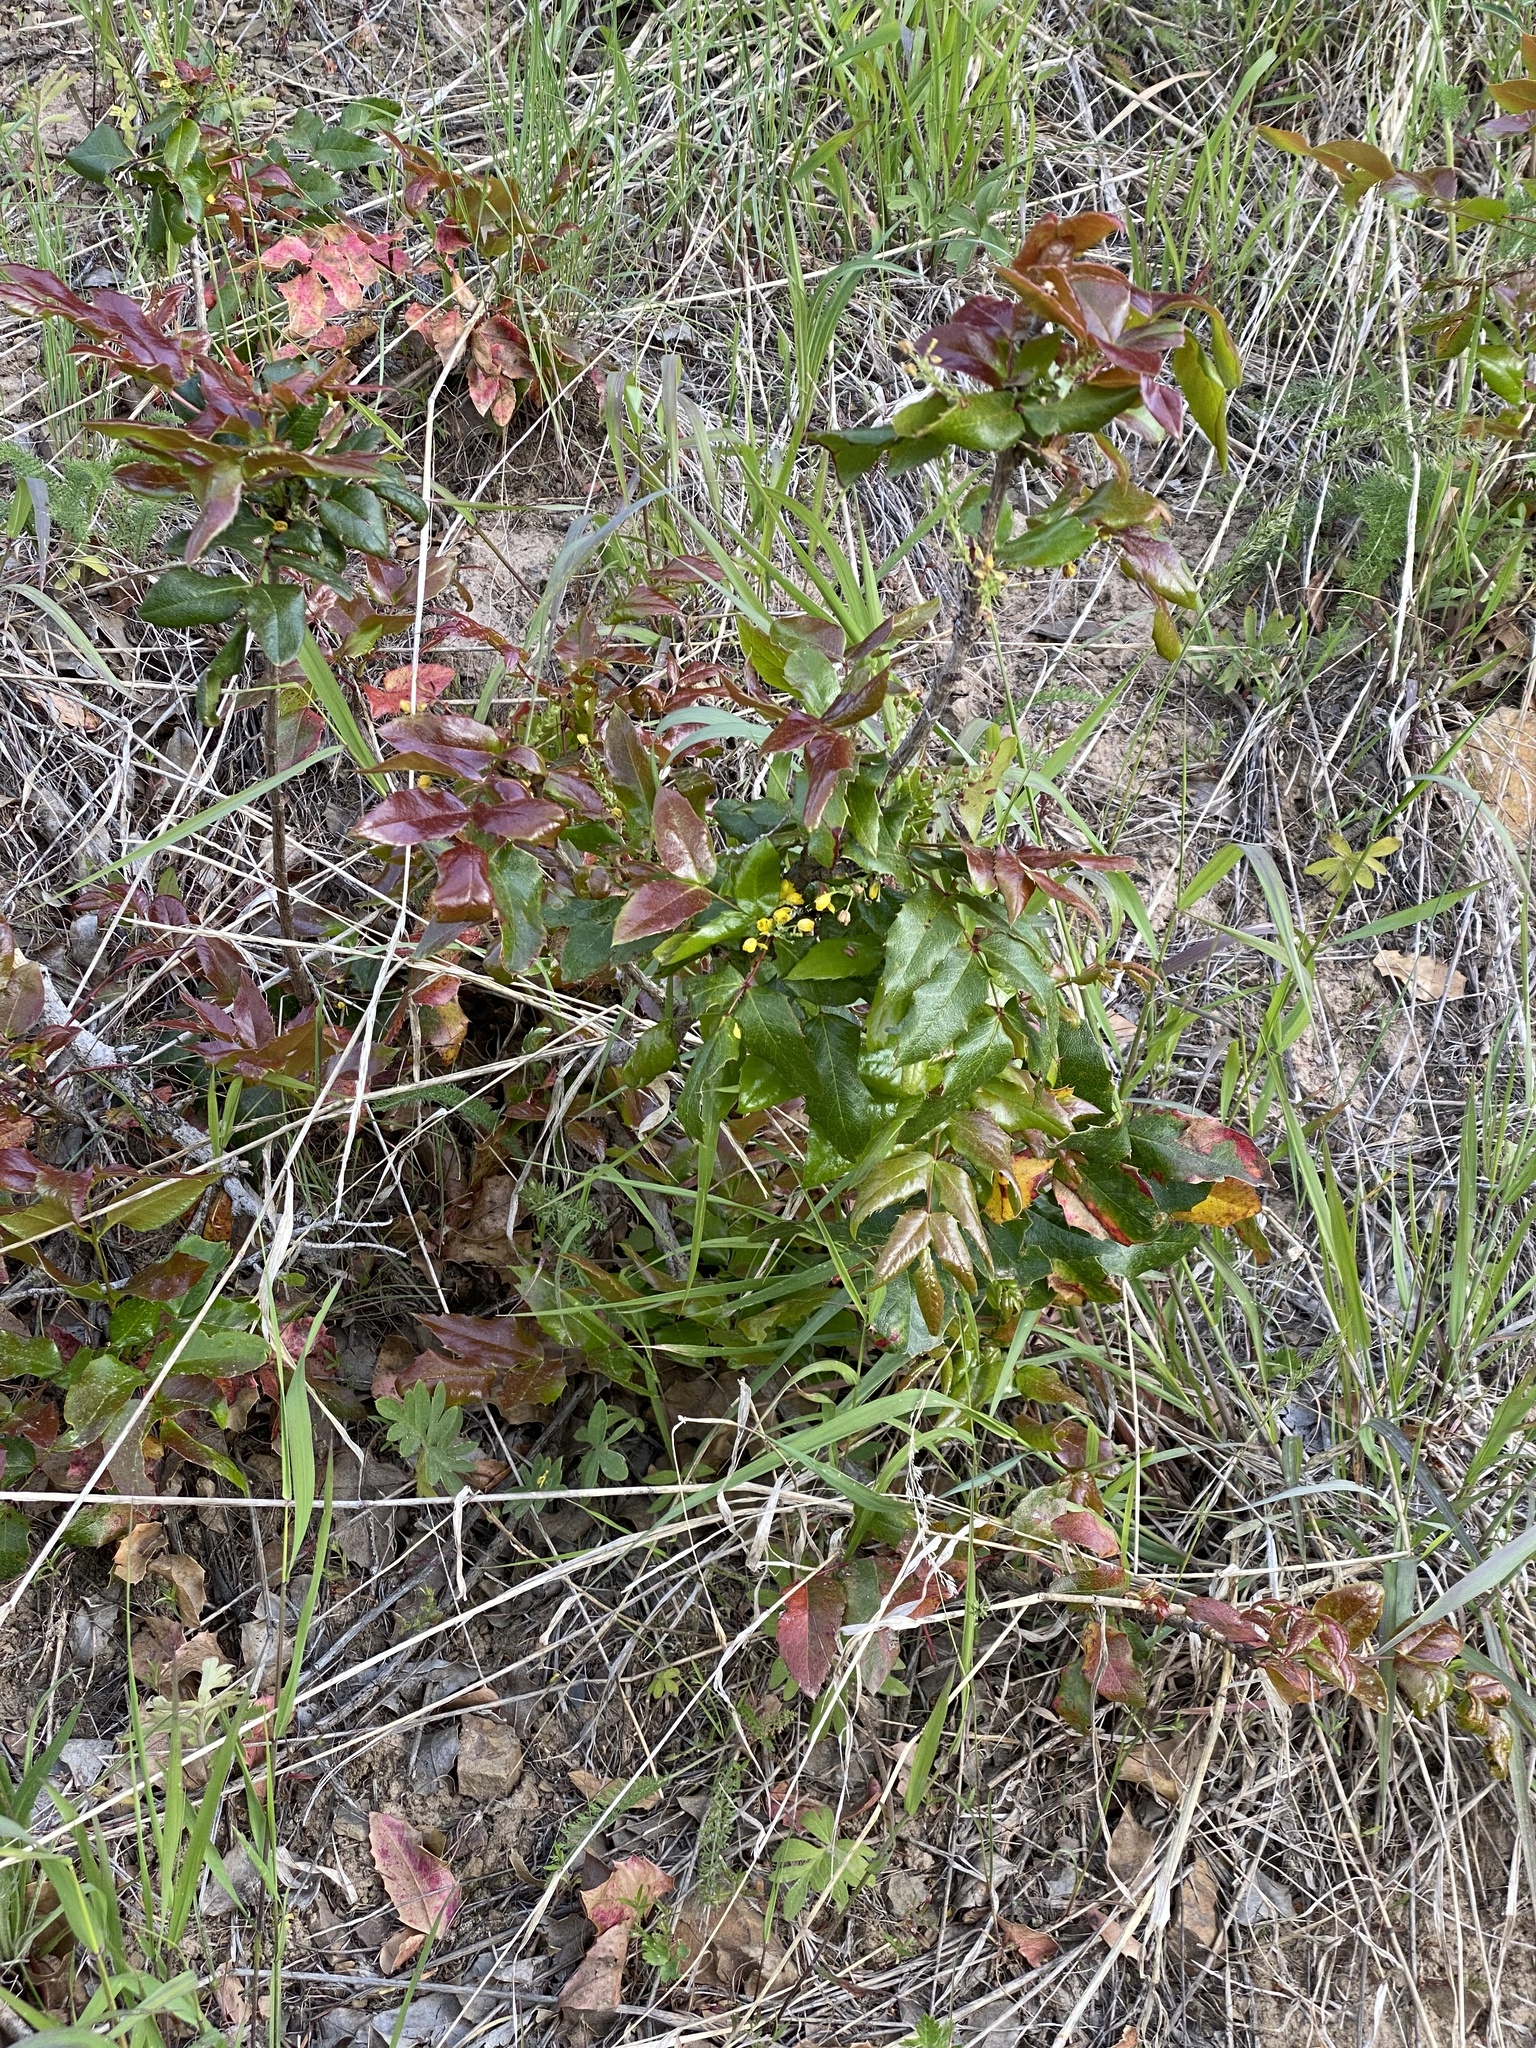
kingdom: Plantae
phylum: Tracheophyta
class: Magnoliopsida
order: Ranunculales
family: Berberidaceae
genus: Mahonia
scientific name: Mahonia aquifolium
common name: Oregon-grape
